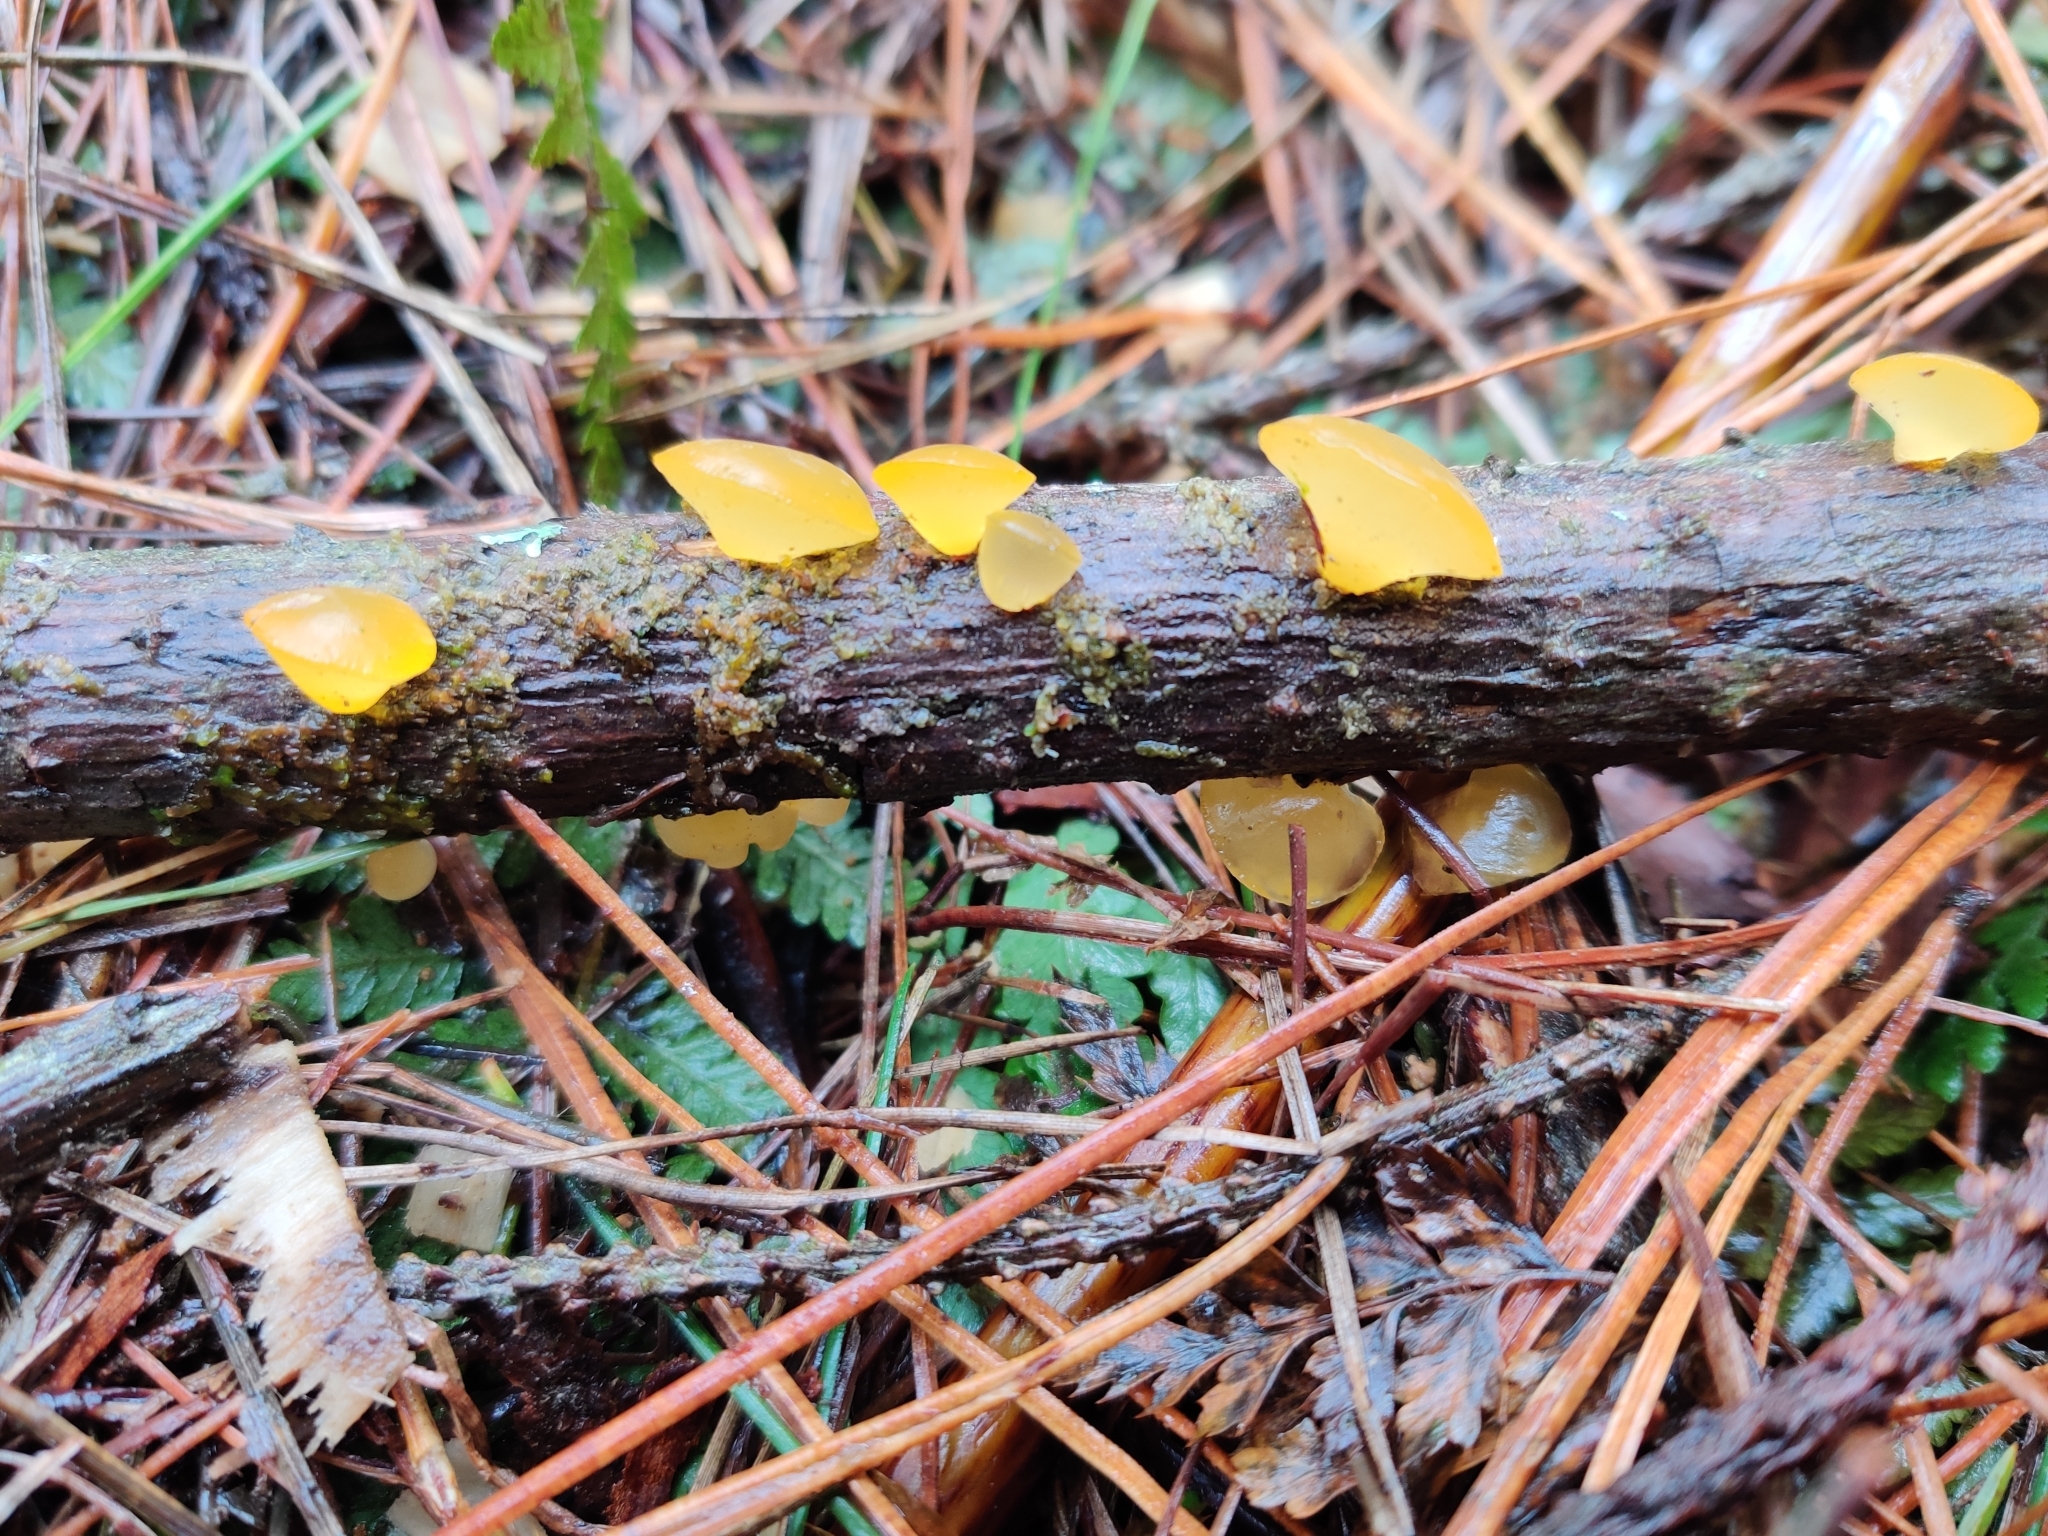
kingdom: Fungi
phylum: Basidiomycota
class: Dacrymycetes
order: Dacrymycetales
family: Dacrymycetaceae
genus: Heterotextus
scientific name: Heterotextus miltinus
